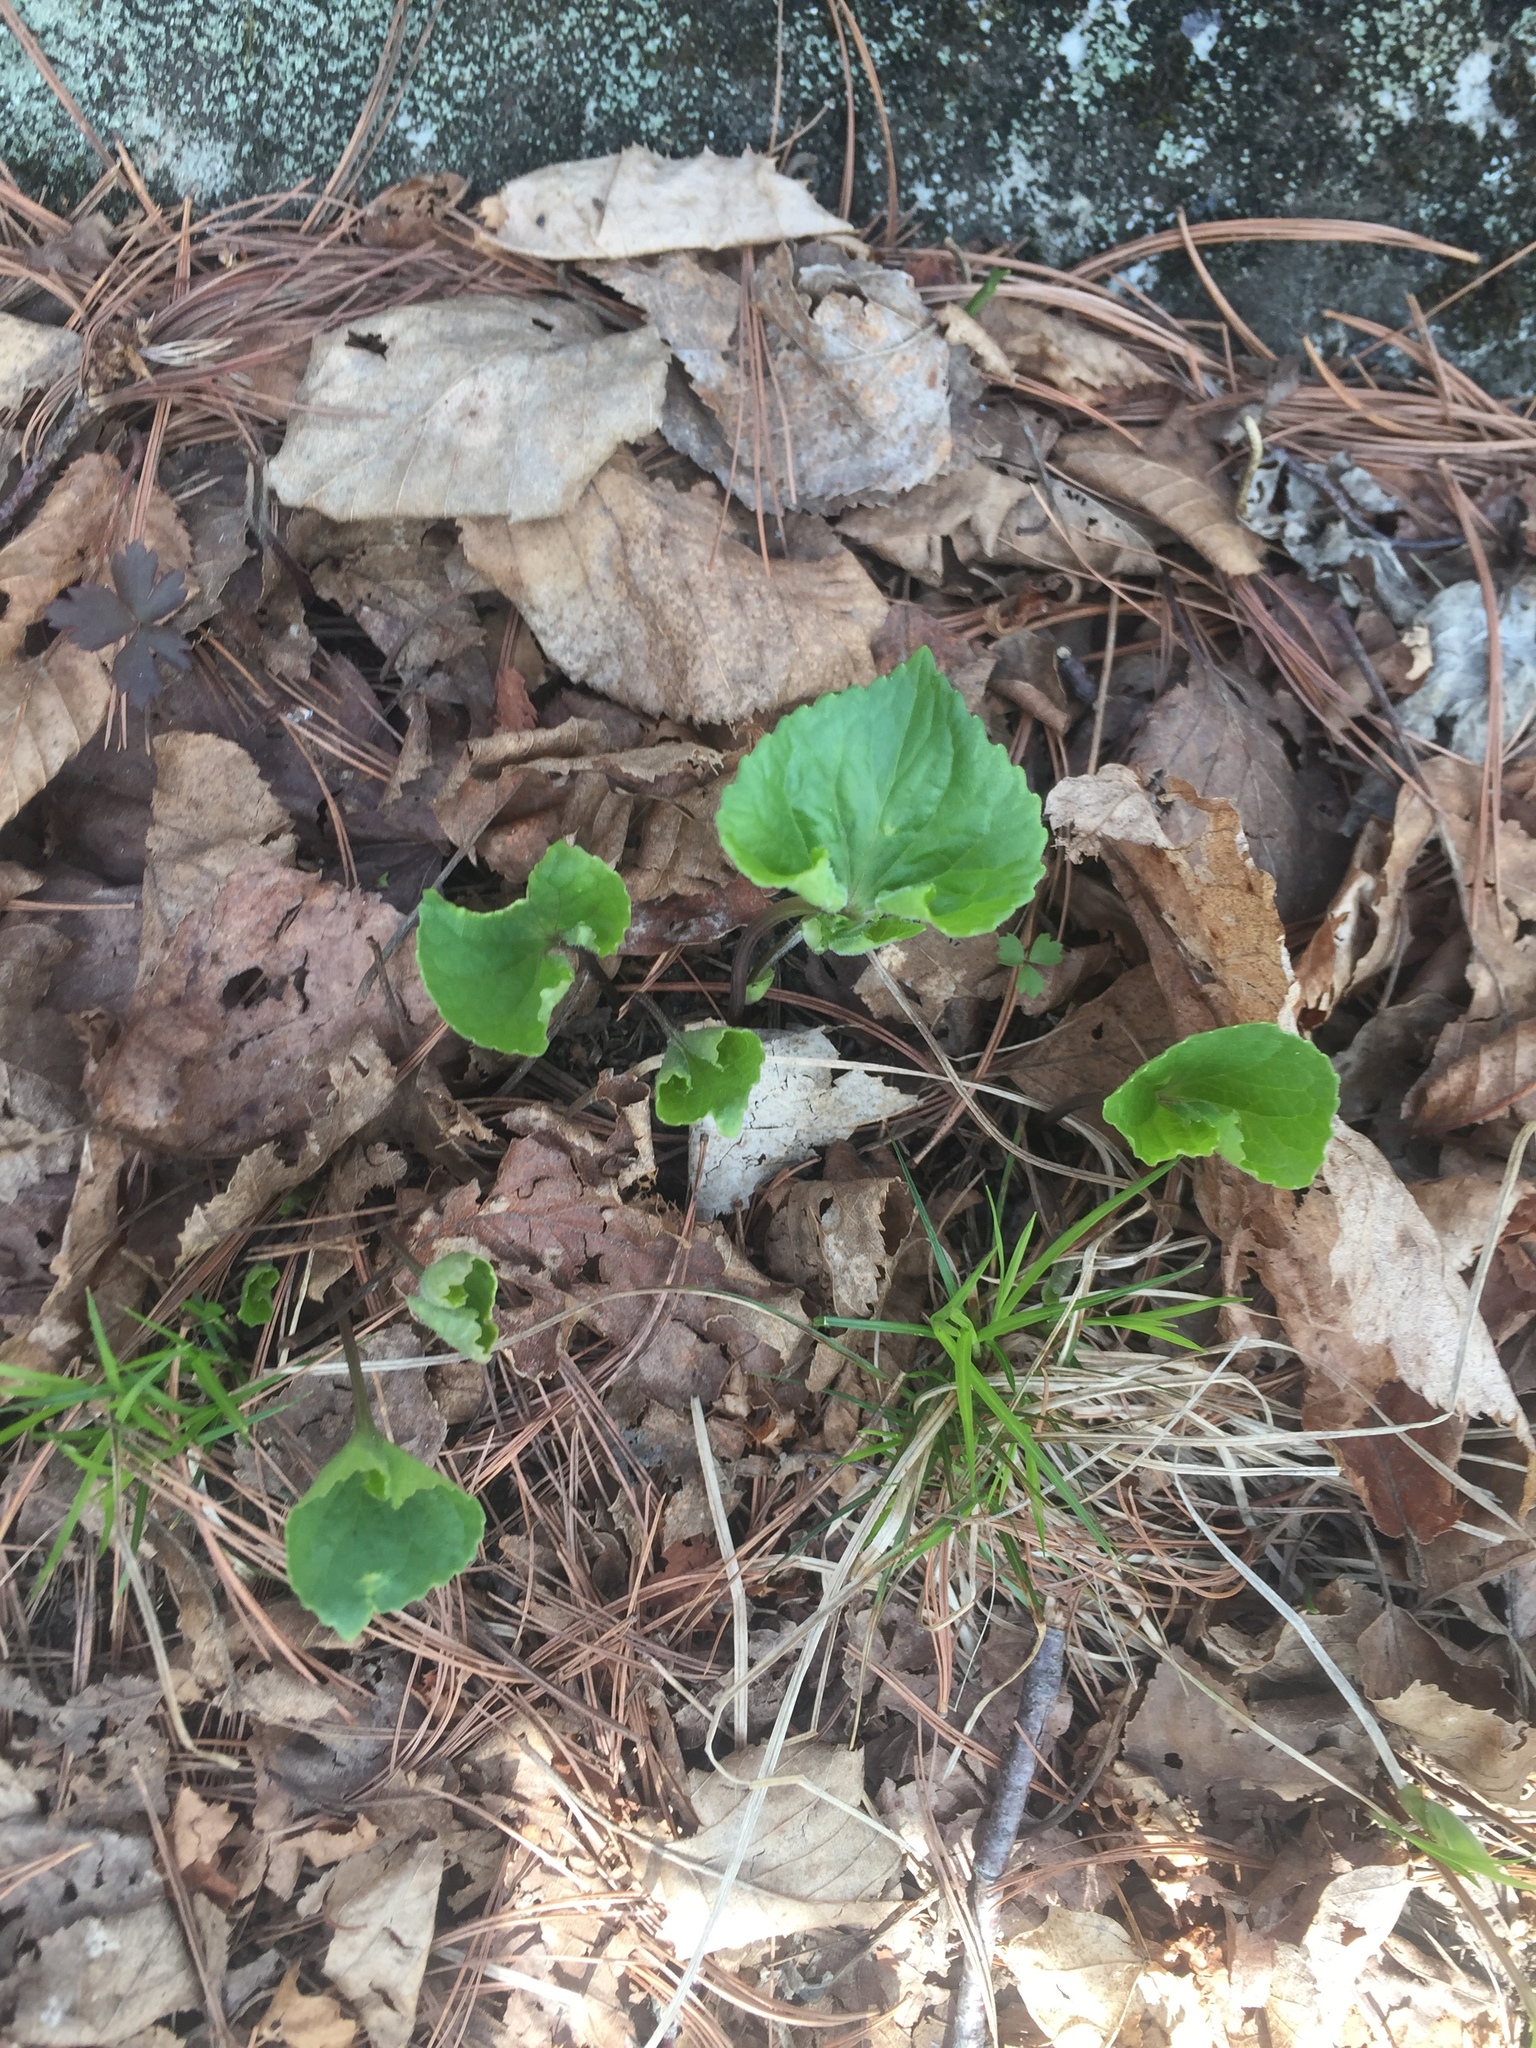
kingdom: Plantae
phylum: Tracheophyta
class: Magnoliopsida
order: Malpighiales
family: Violaceae
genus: Viola
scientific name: Viola sororia
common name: Dooryard violet
